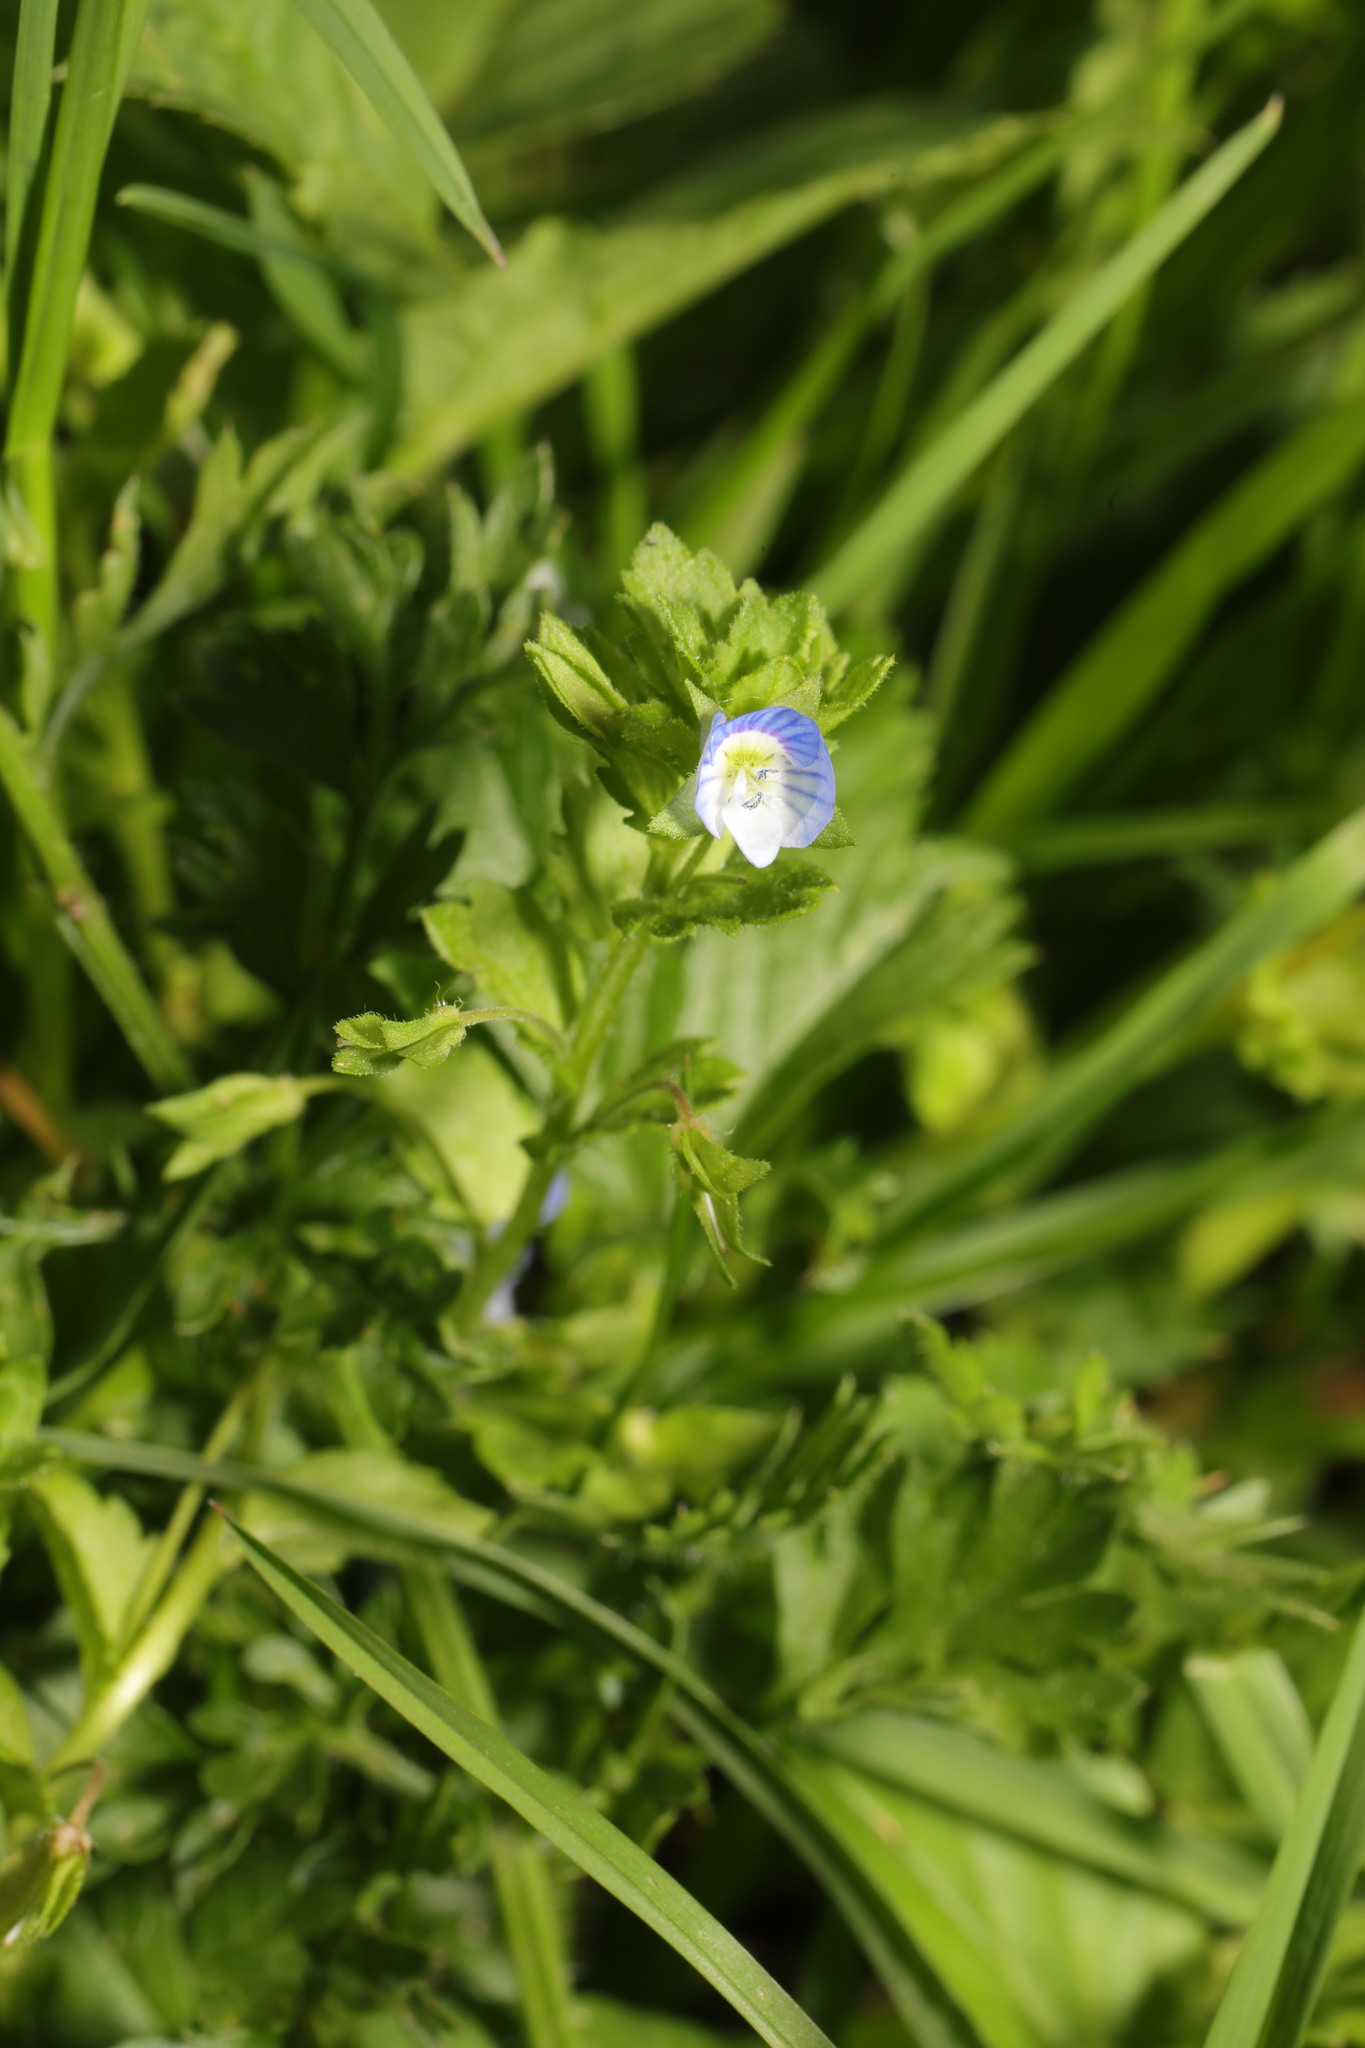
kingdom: Plantae
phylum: Tracheophyta
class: Magnoliopsida
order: Lamiales
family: Plantaginaceae
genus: Veronica
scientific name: Veronica persica
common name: Common field-speedwell
